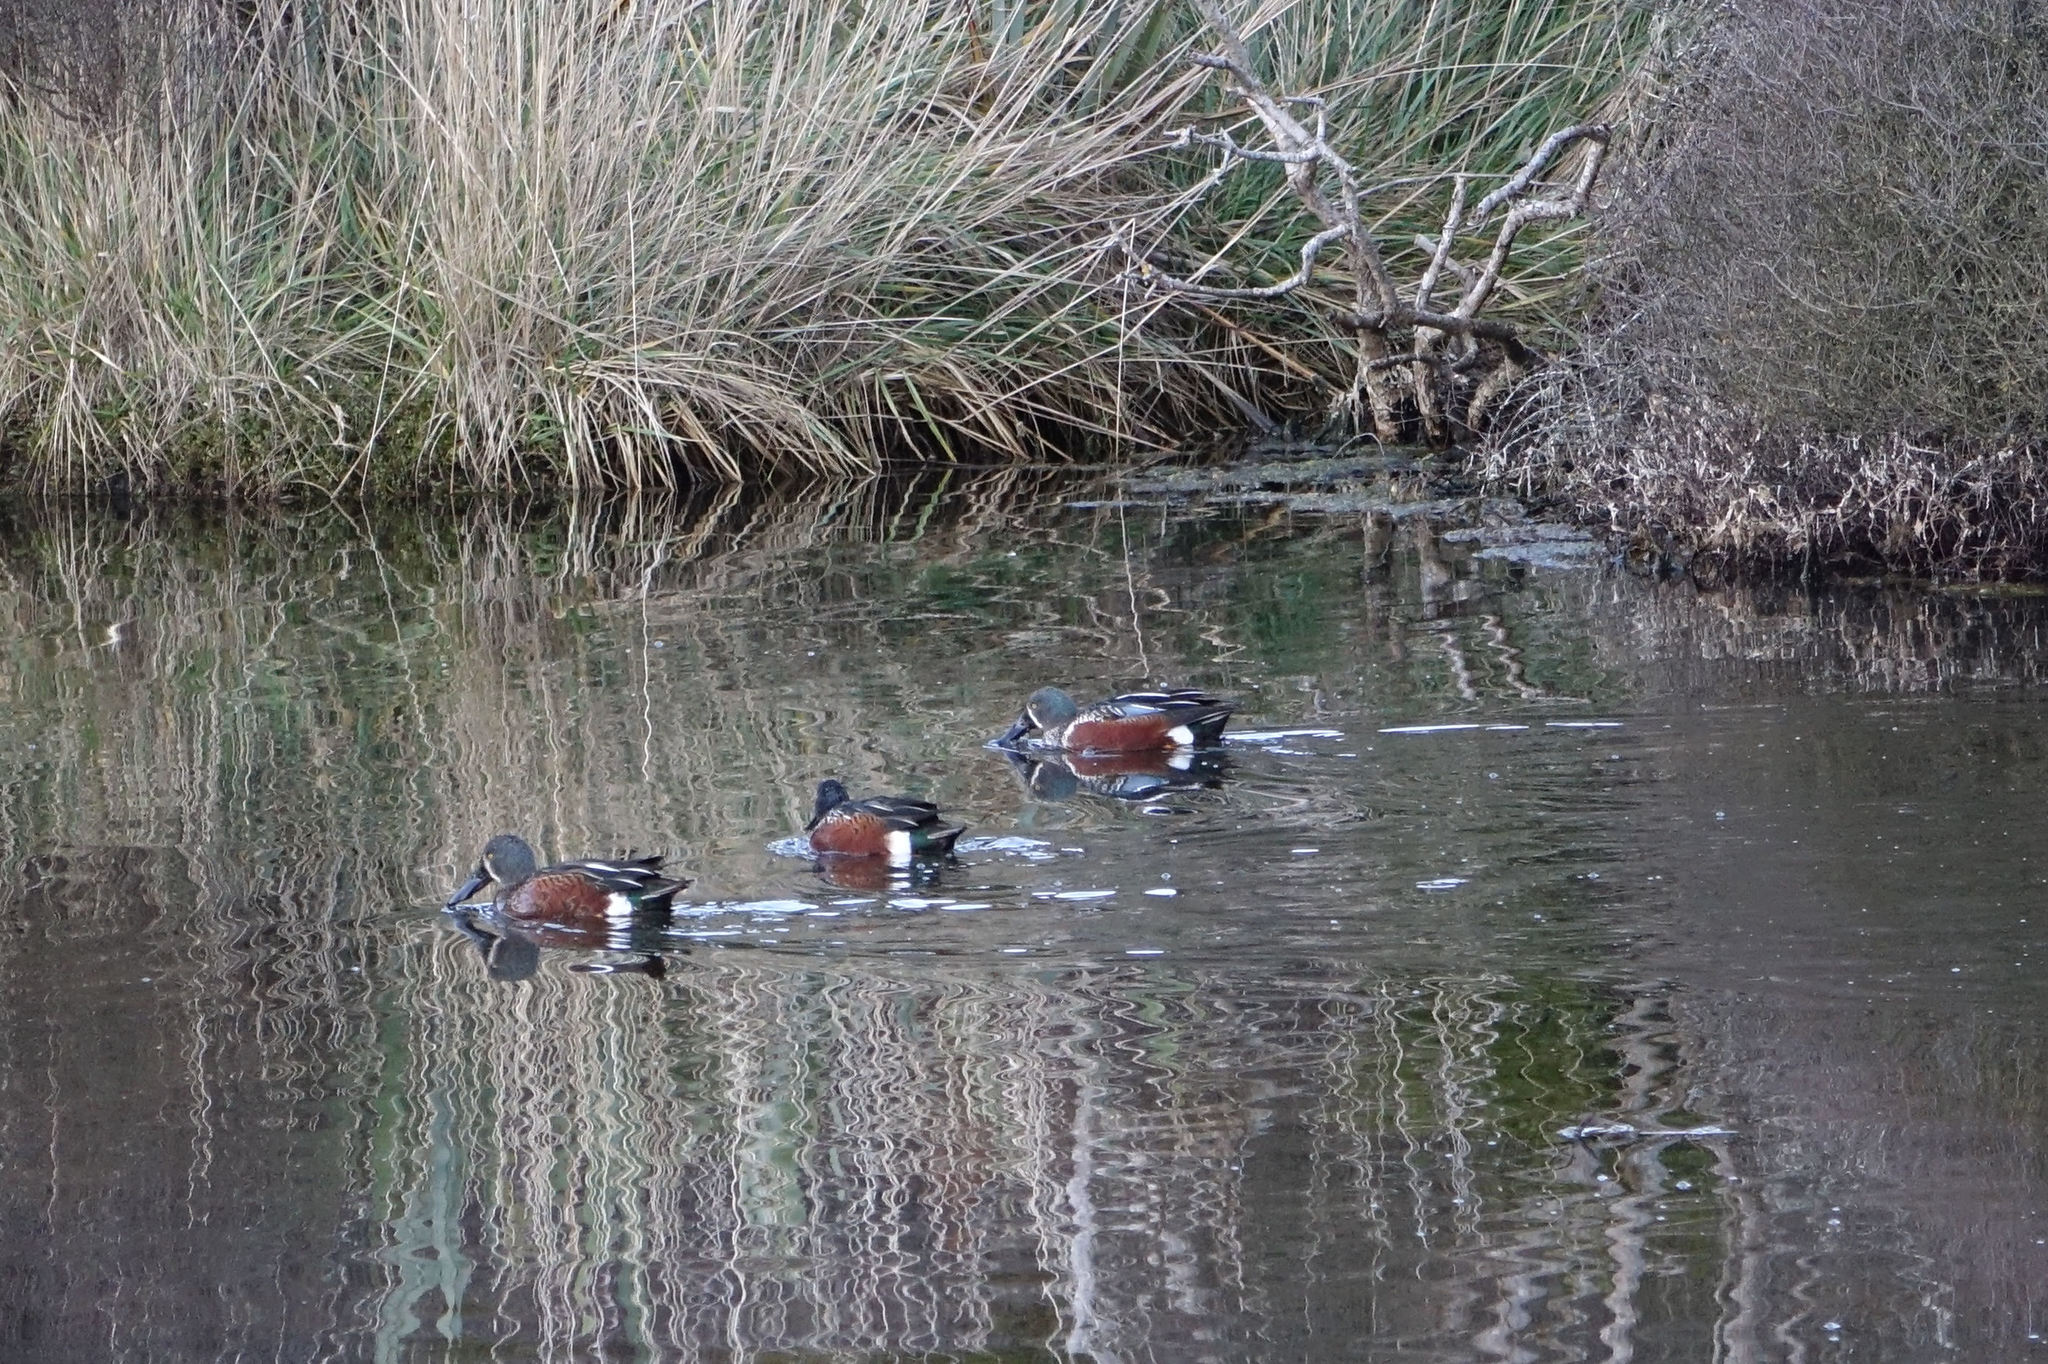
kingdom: Animalia
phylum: Chordata
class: Aves
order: Anseriformes
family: Anatidae
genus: Spatula
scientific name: Spatula rhynchotis
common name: Australian shoveler
